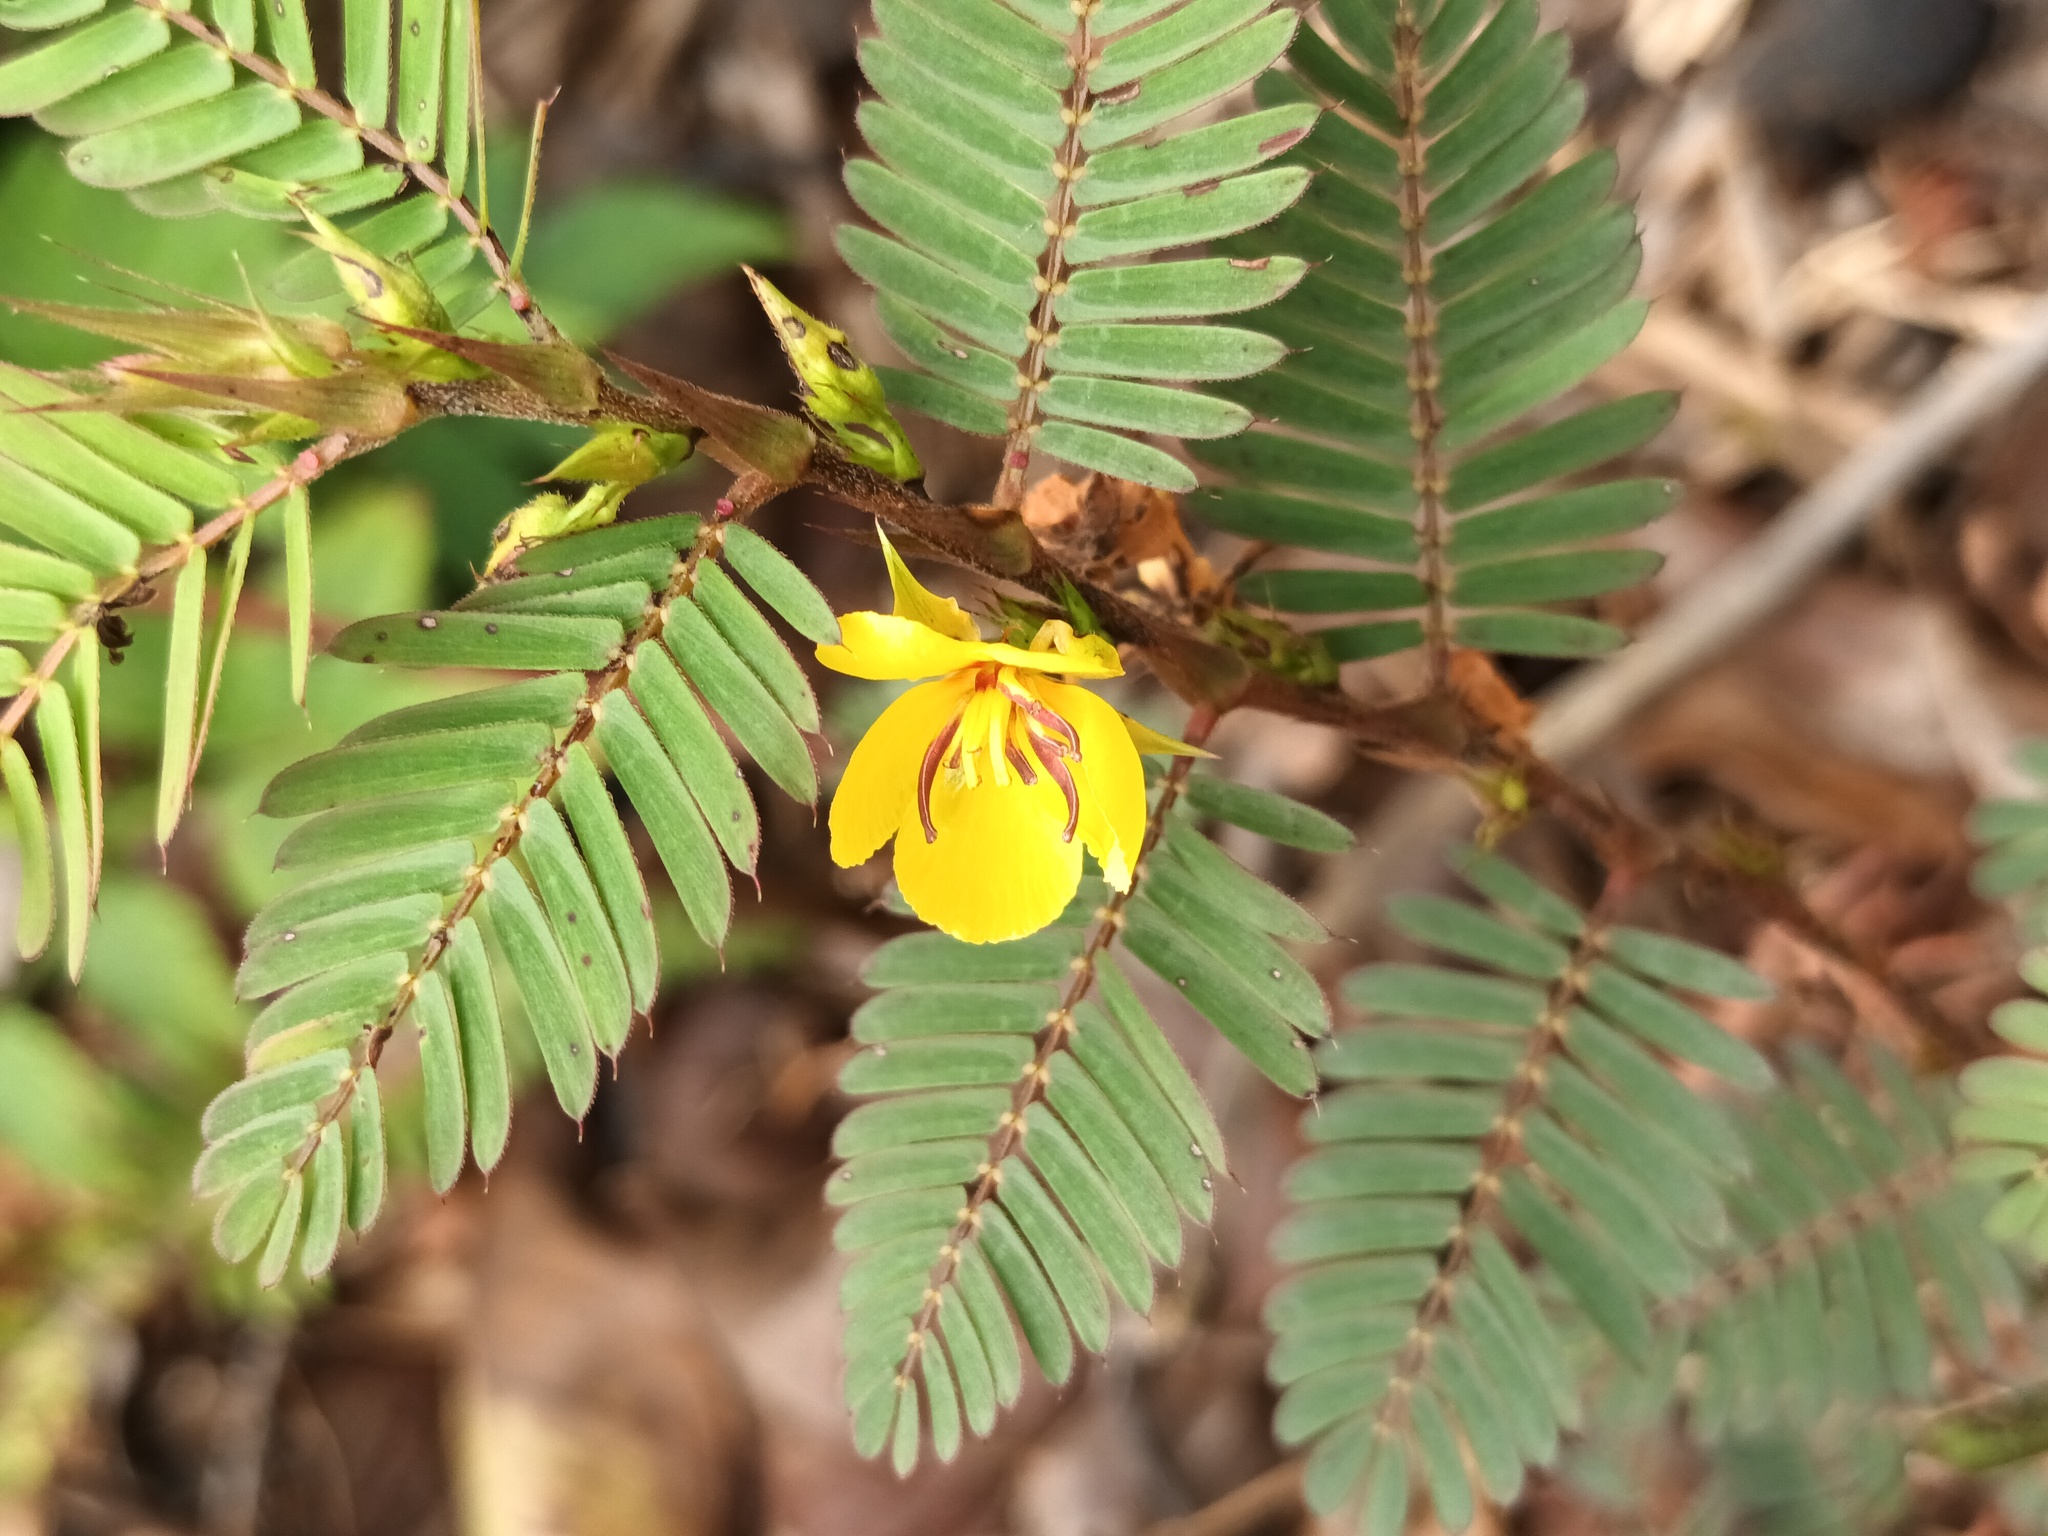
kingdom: Plantae
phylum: Tracheophyta
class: Magnoliopsida
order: Fabales
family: Fabaceae
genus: Chamaecrista
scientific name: Chamaecrista nictitans
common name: Sensitive cassia
